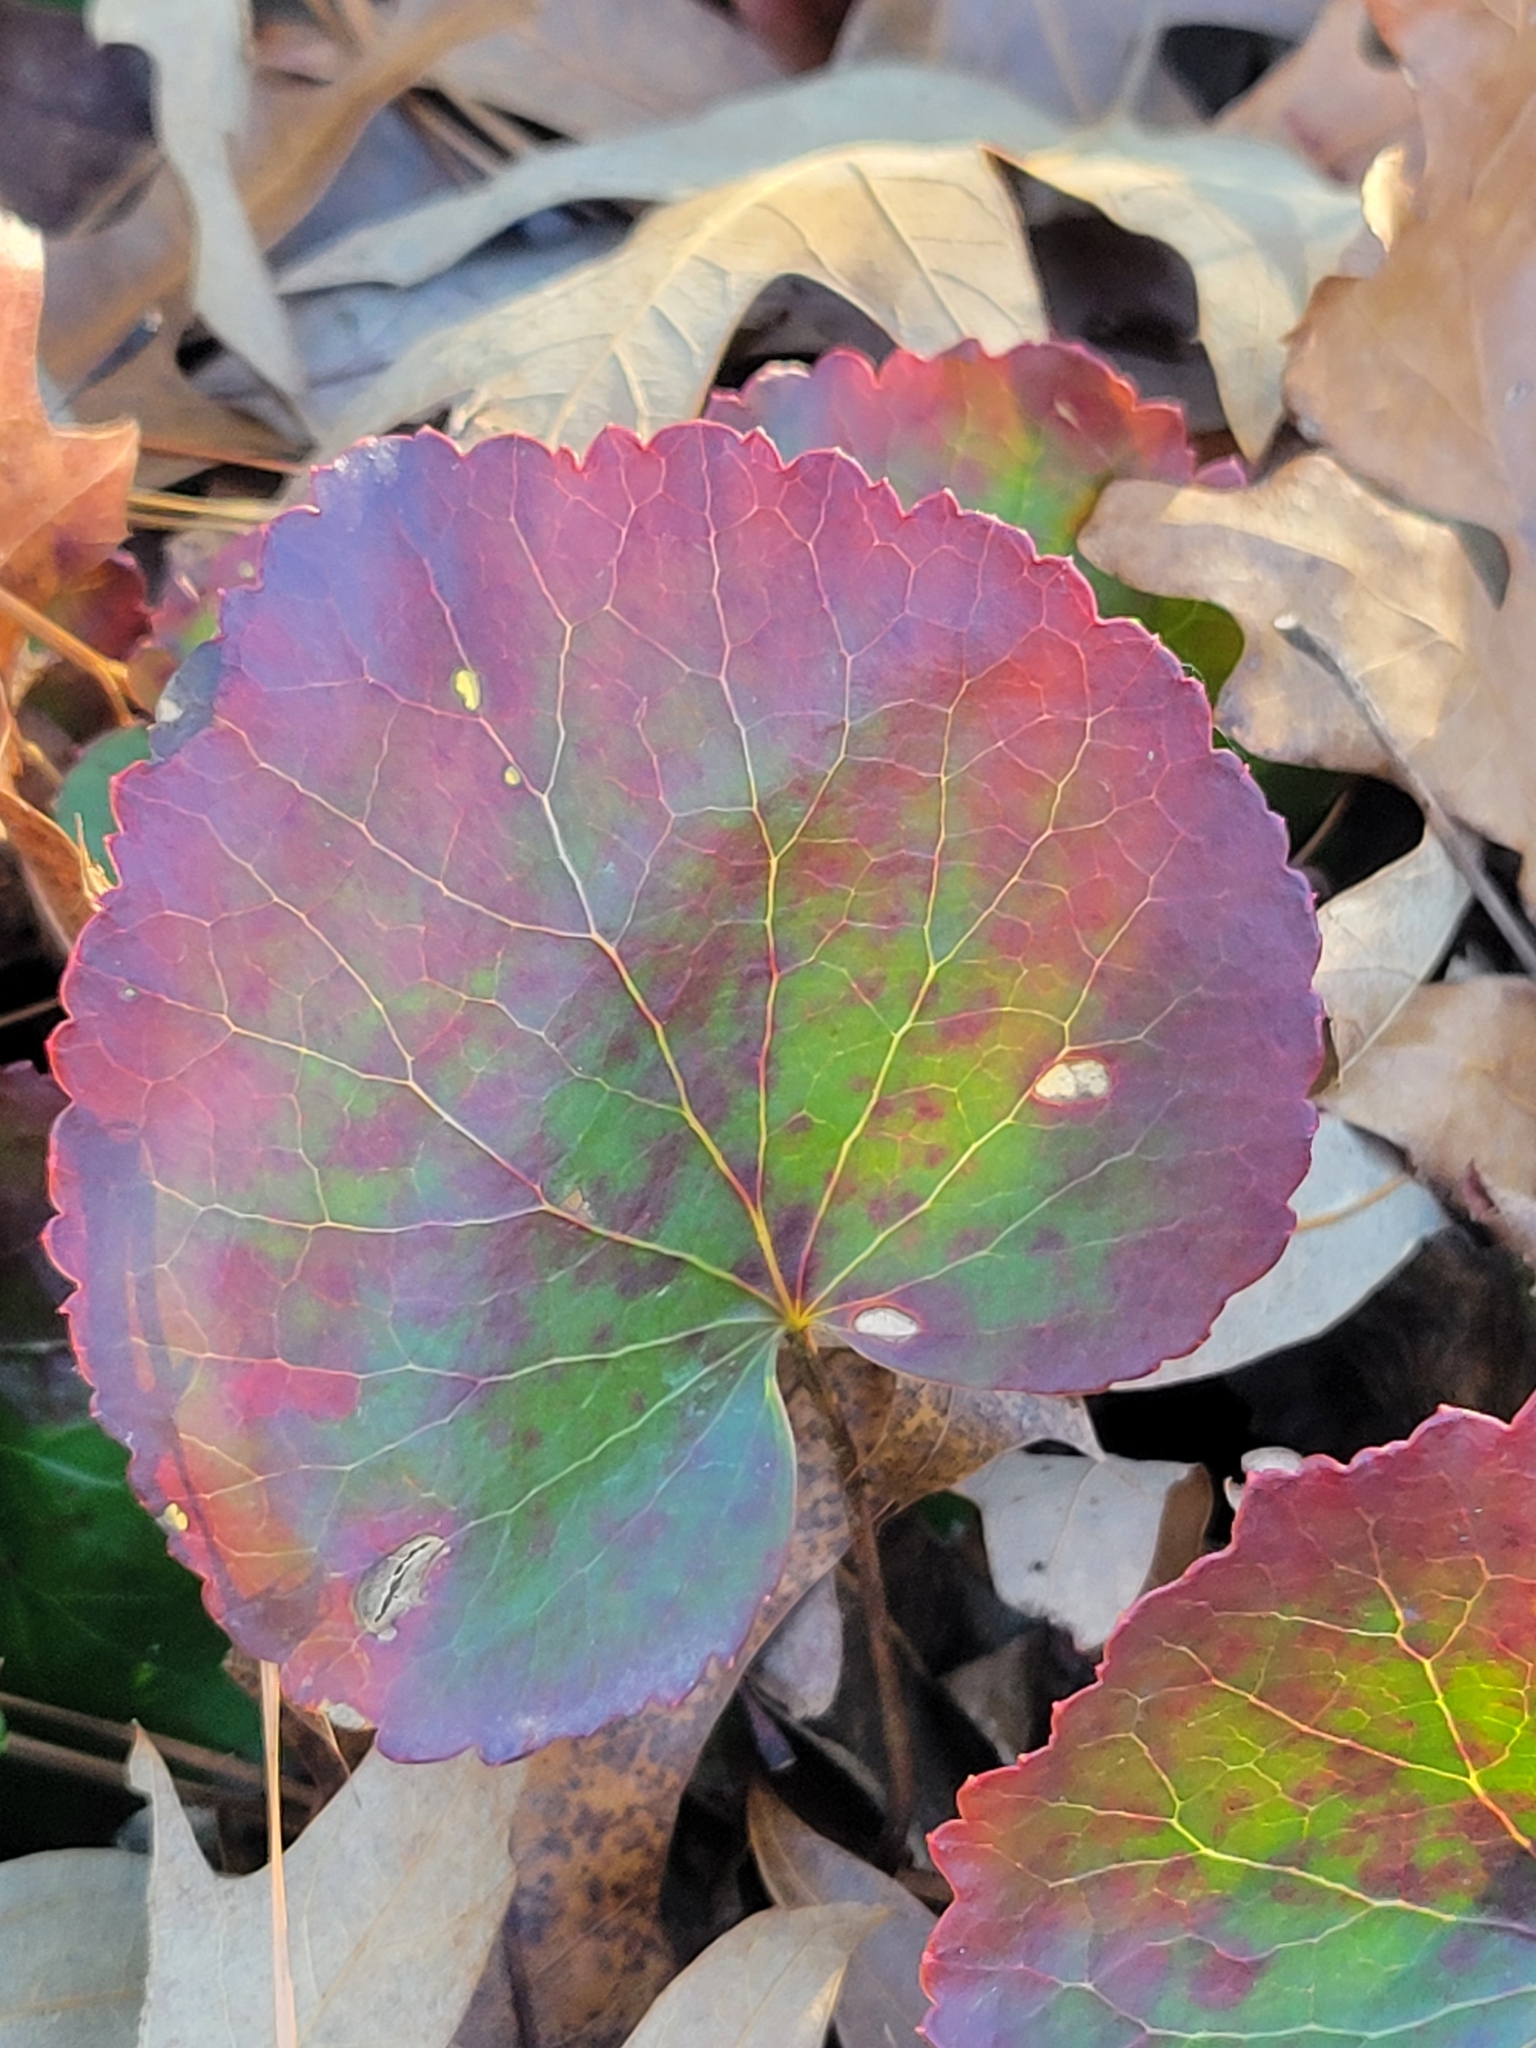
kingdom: Plantae
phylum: Tracheophyta
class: Magnoliopsida
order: Ericales
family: Diapensiaceae
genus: Galax
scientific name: Galax urceolata
